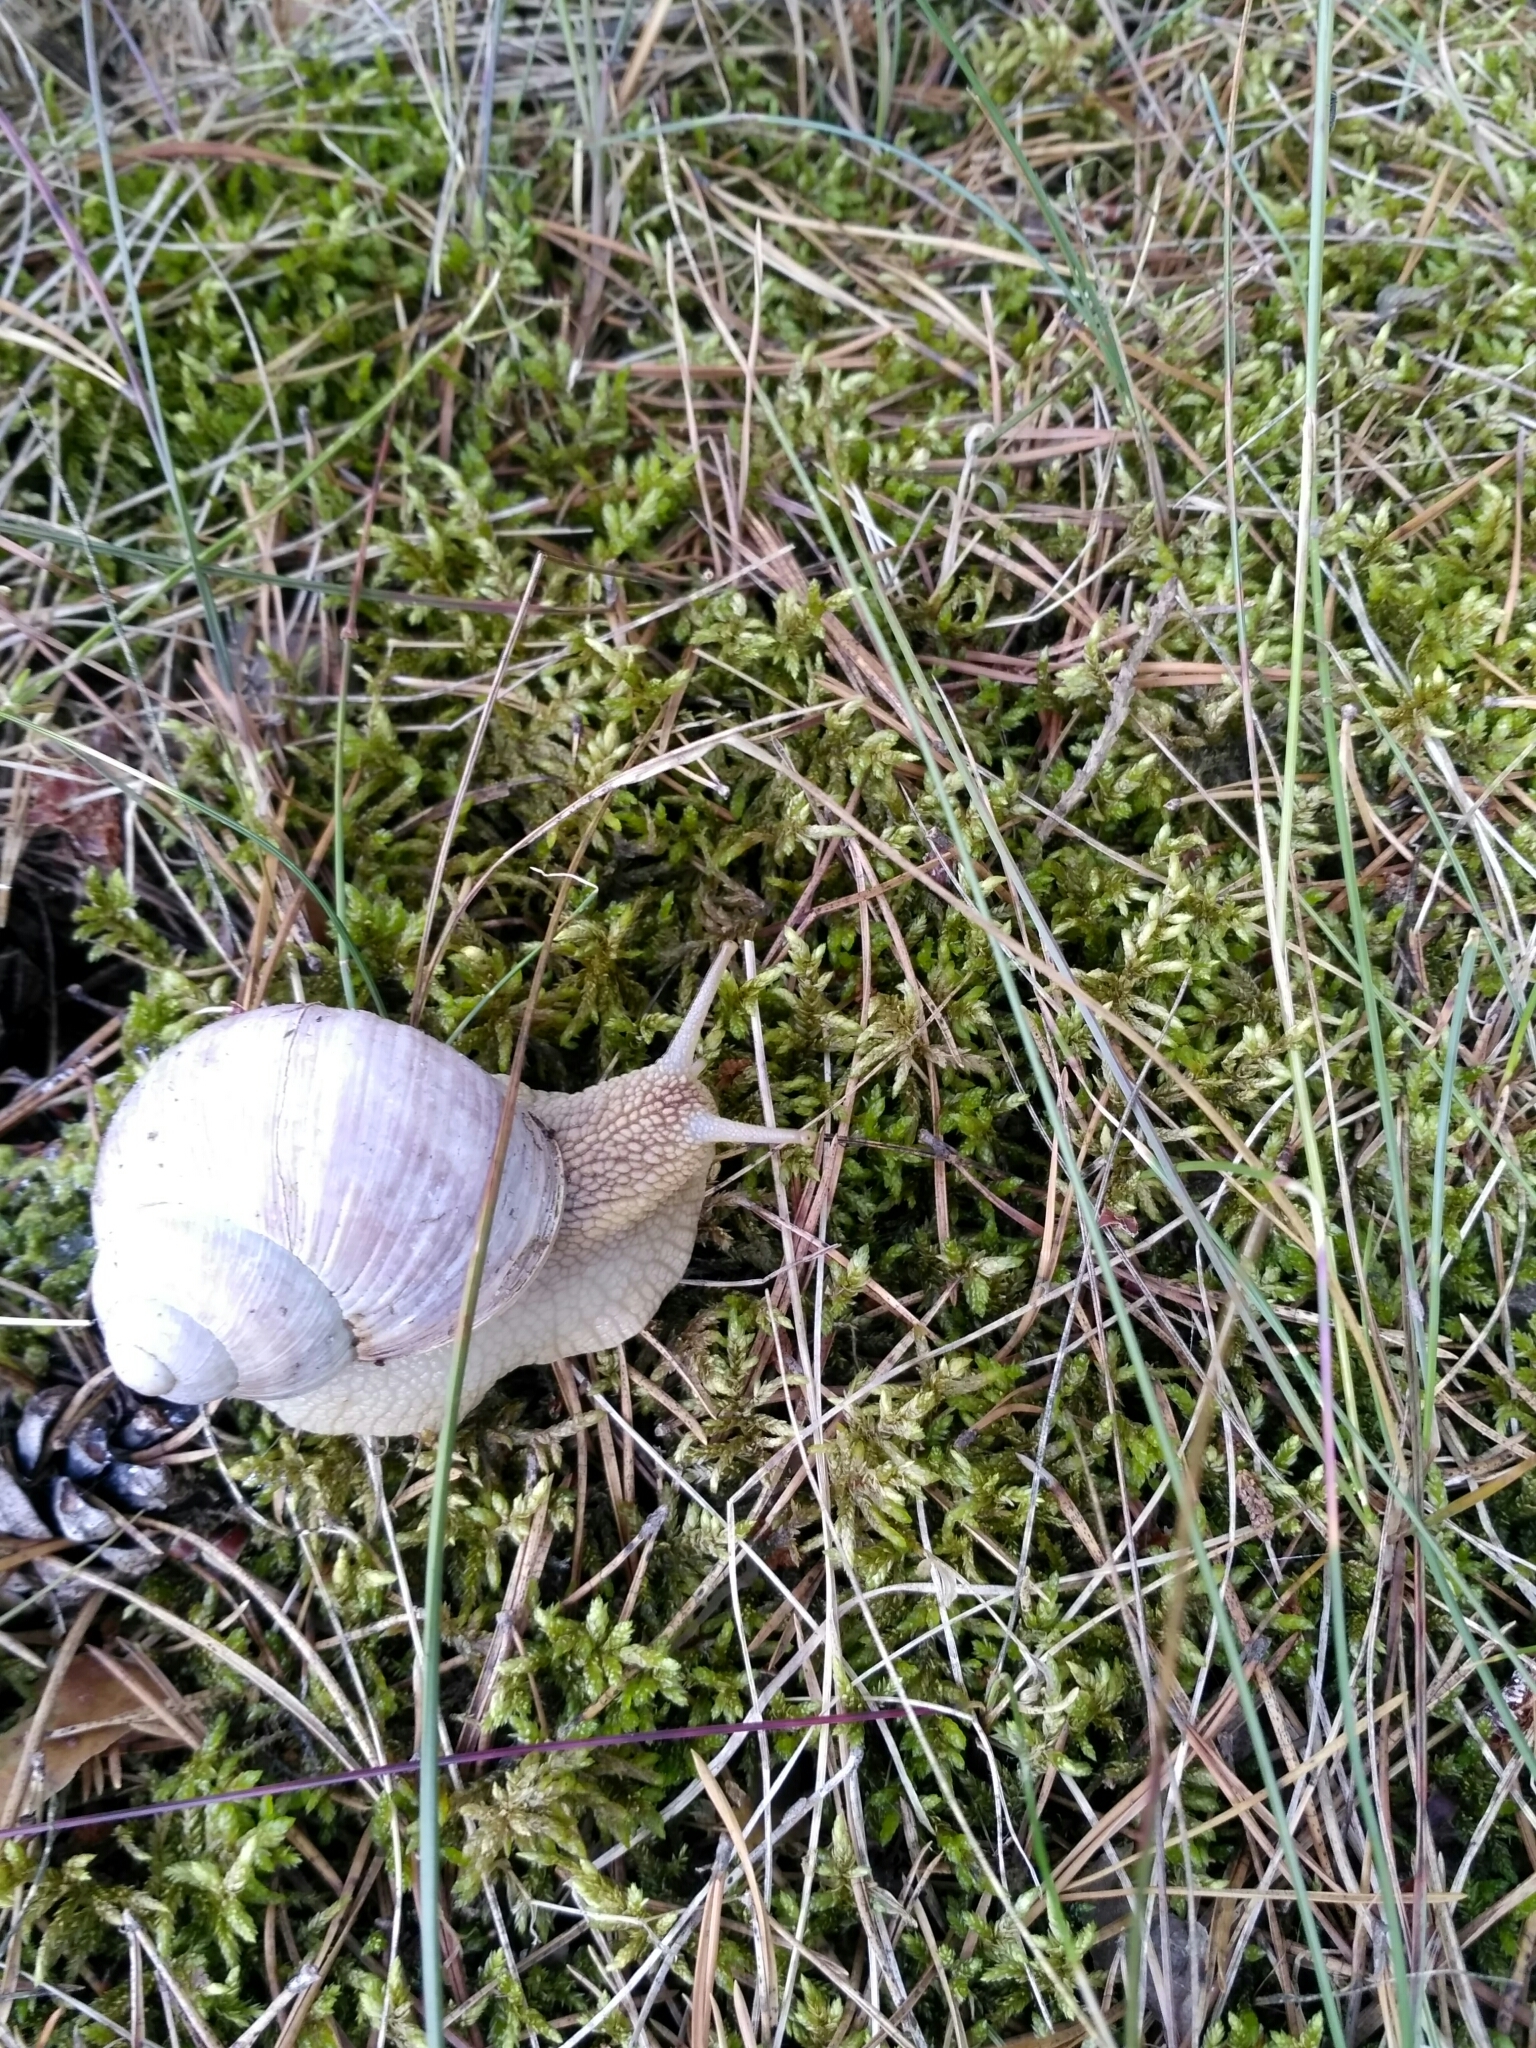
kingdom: Animalia
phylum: Mollusca
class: Gastropoda
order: Stylommatophora
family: Helicidae
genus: Helix
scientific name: Helix pomatia
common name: Roman snail
